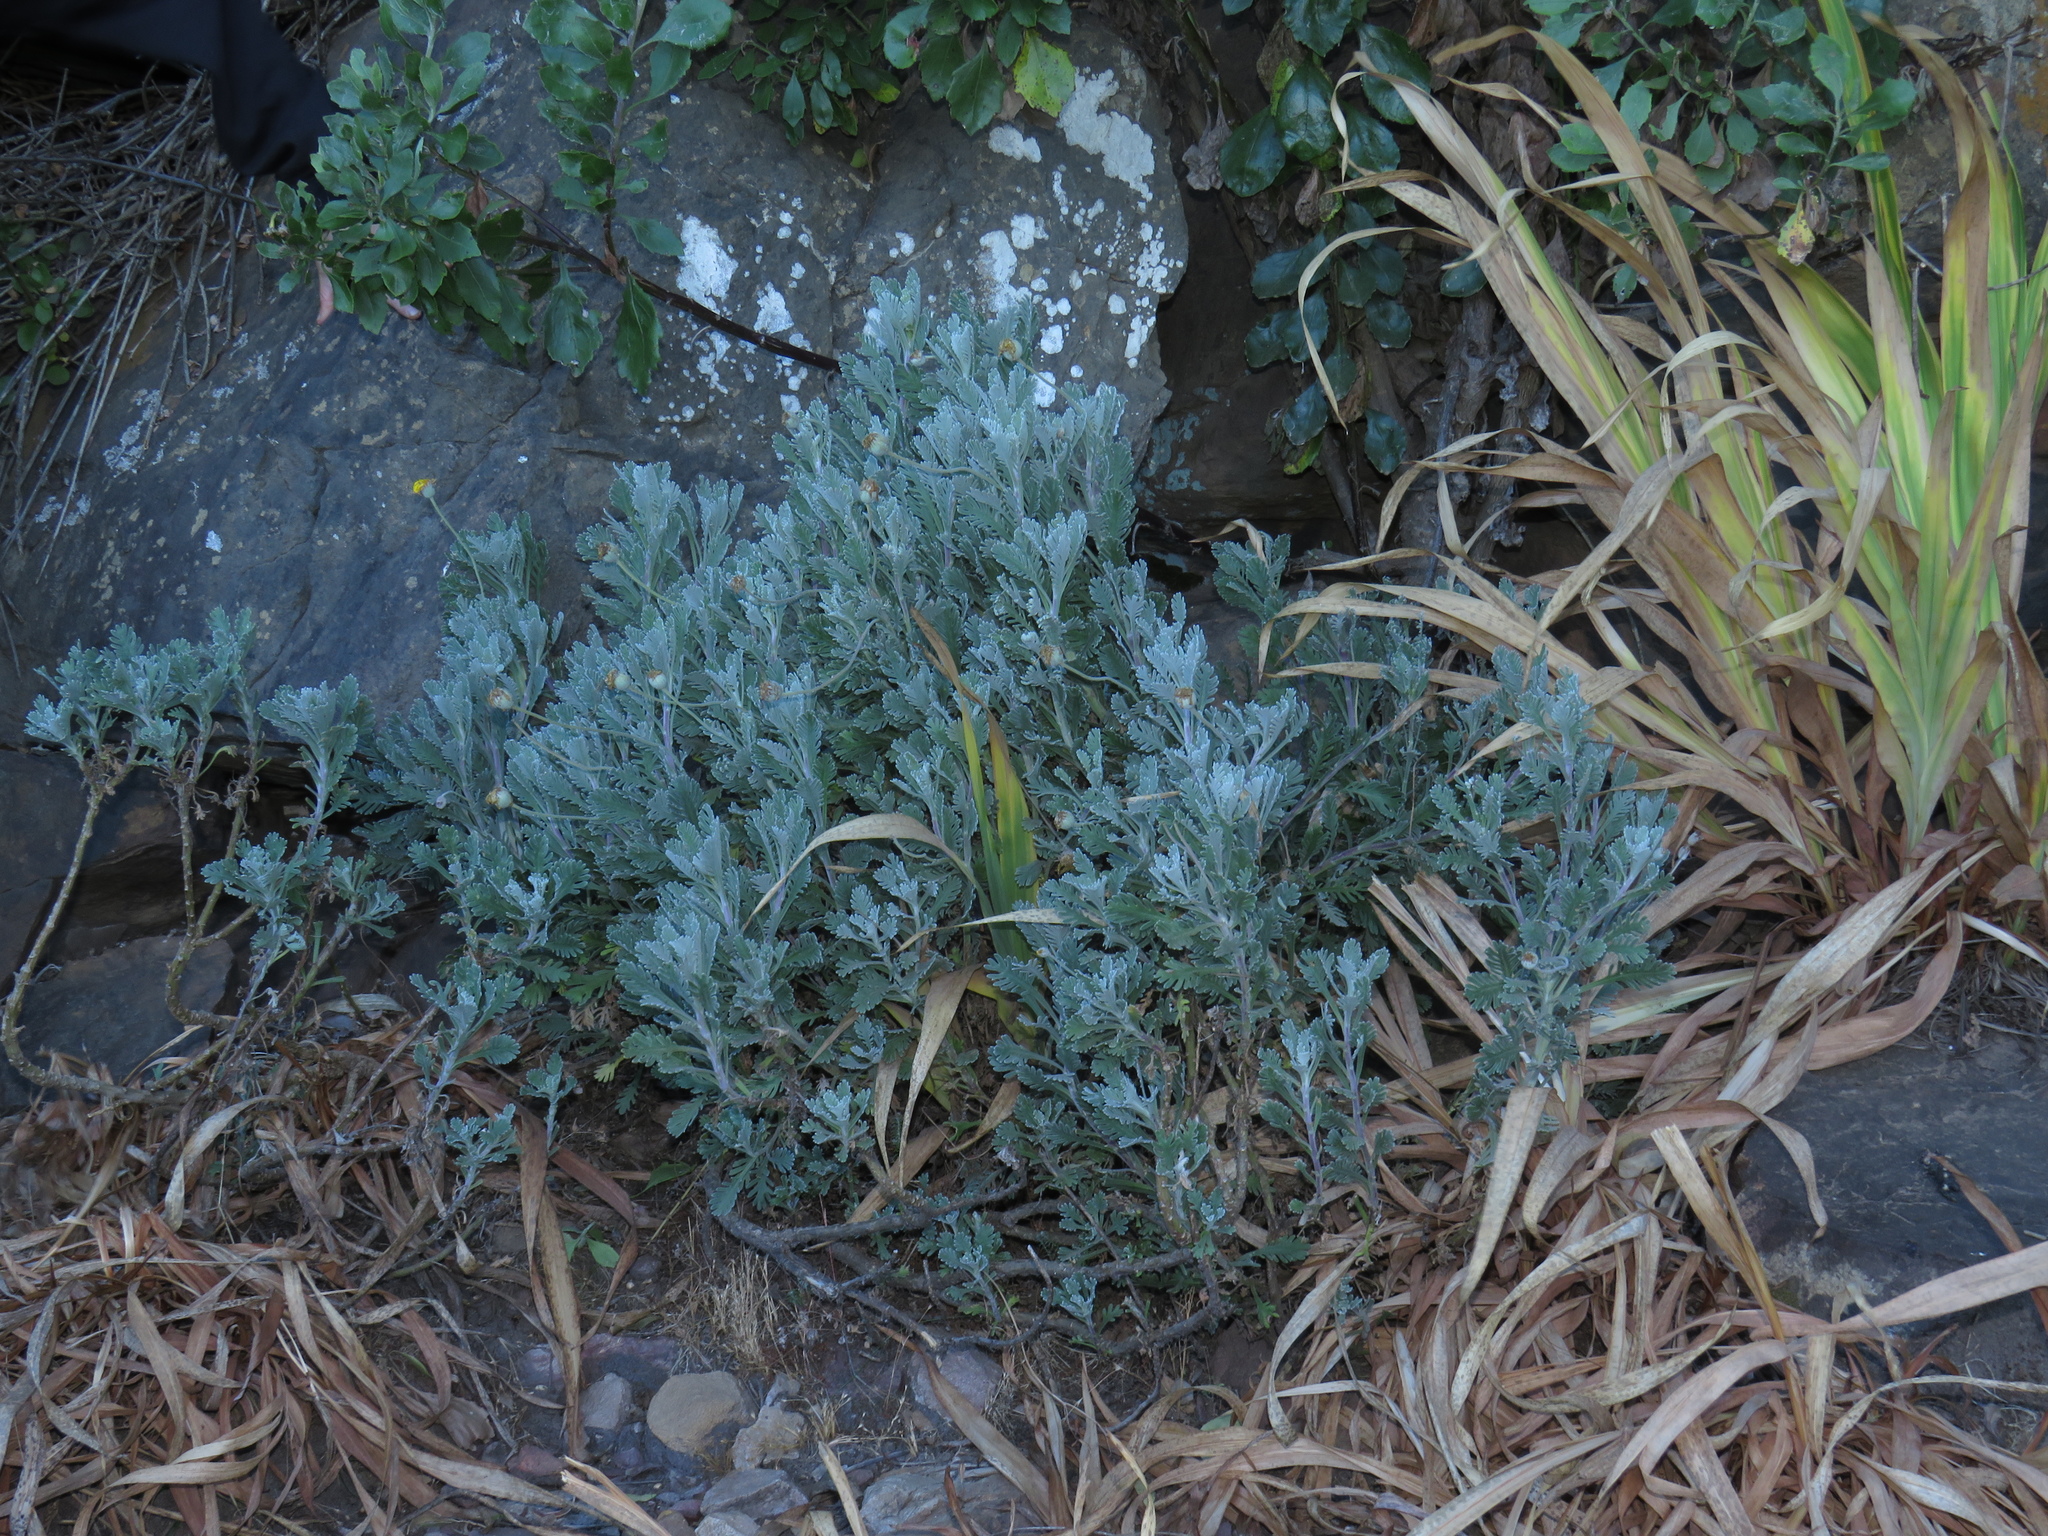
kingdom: Plantae
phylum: Tracheophyta
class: Magnoliopsida
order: Asterales
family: Asteraceae
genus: Euryops
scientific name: Euryops pectinatus
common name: Gray-leaf euryops
